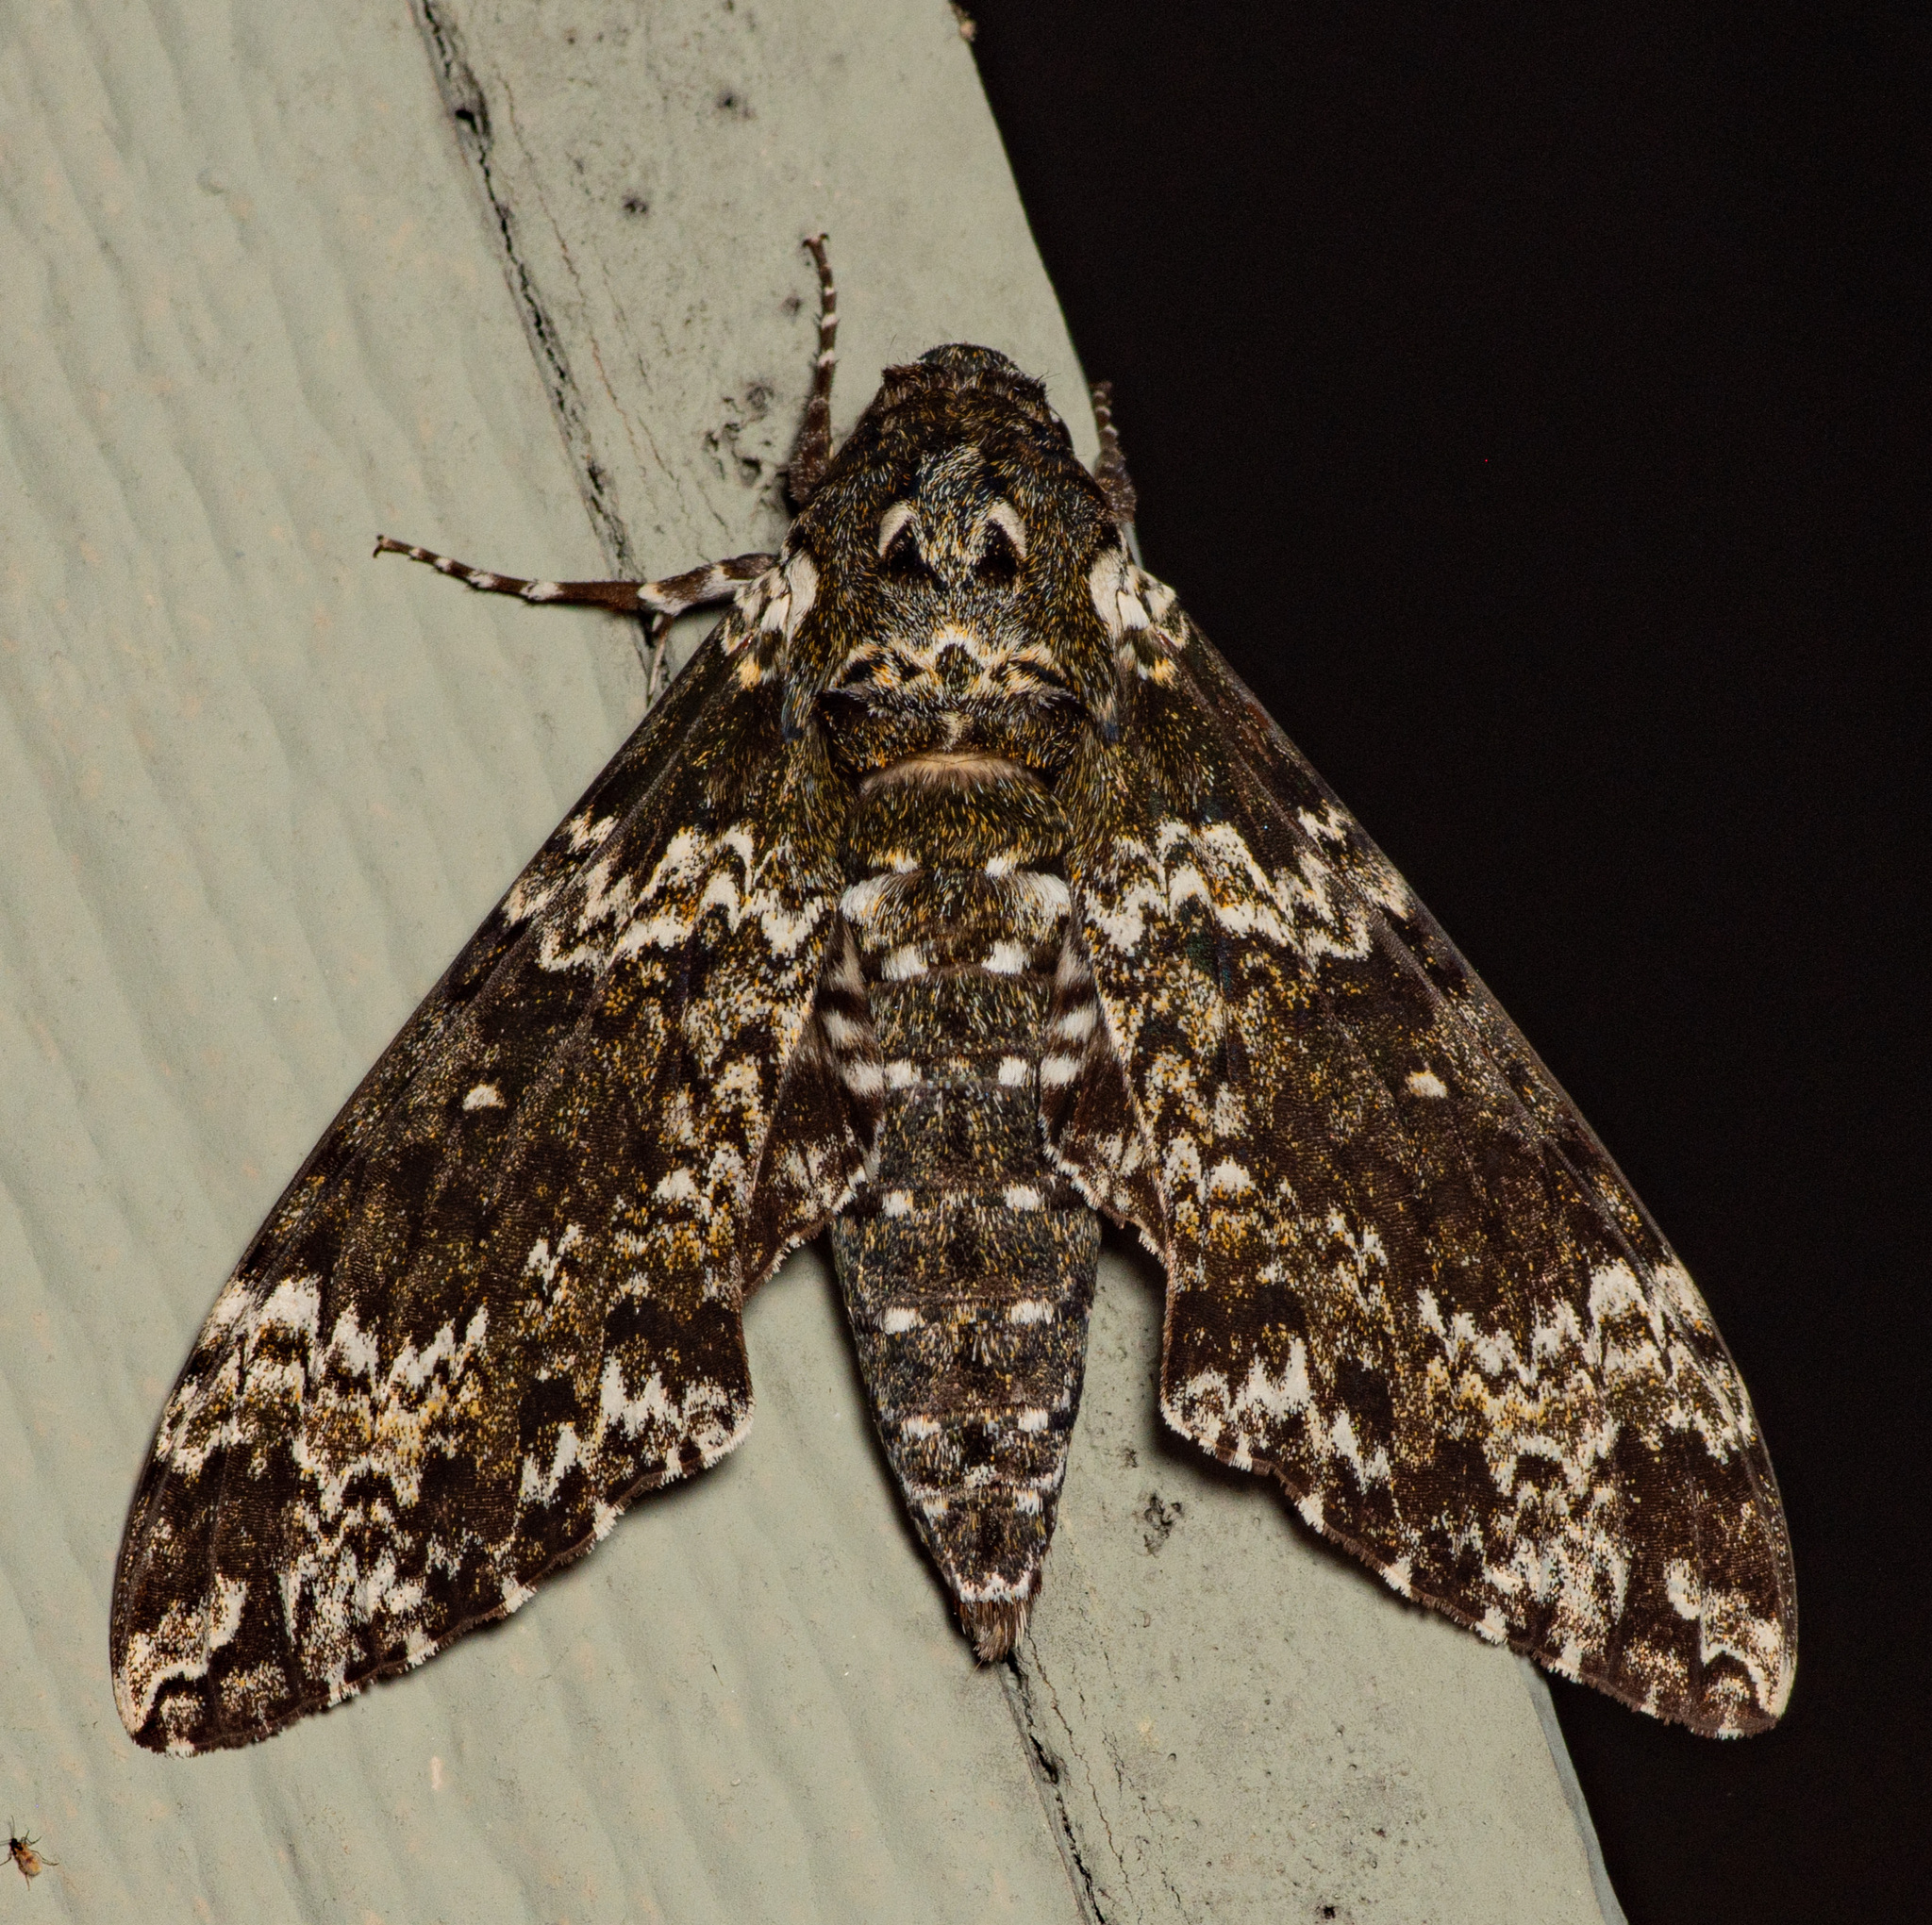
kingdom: Animalia
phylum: Arthropoda
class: Insecta
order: Lepidoptera
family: Sphingidae
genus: Manduca
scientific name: Manduca rustica
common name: Rustic sphinx
